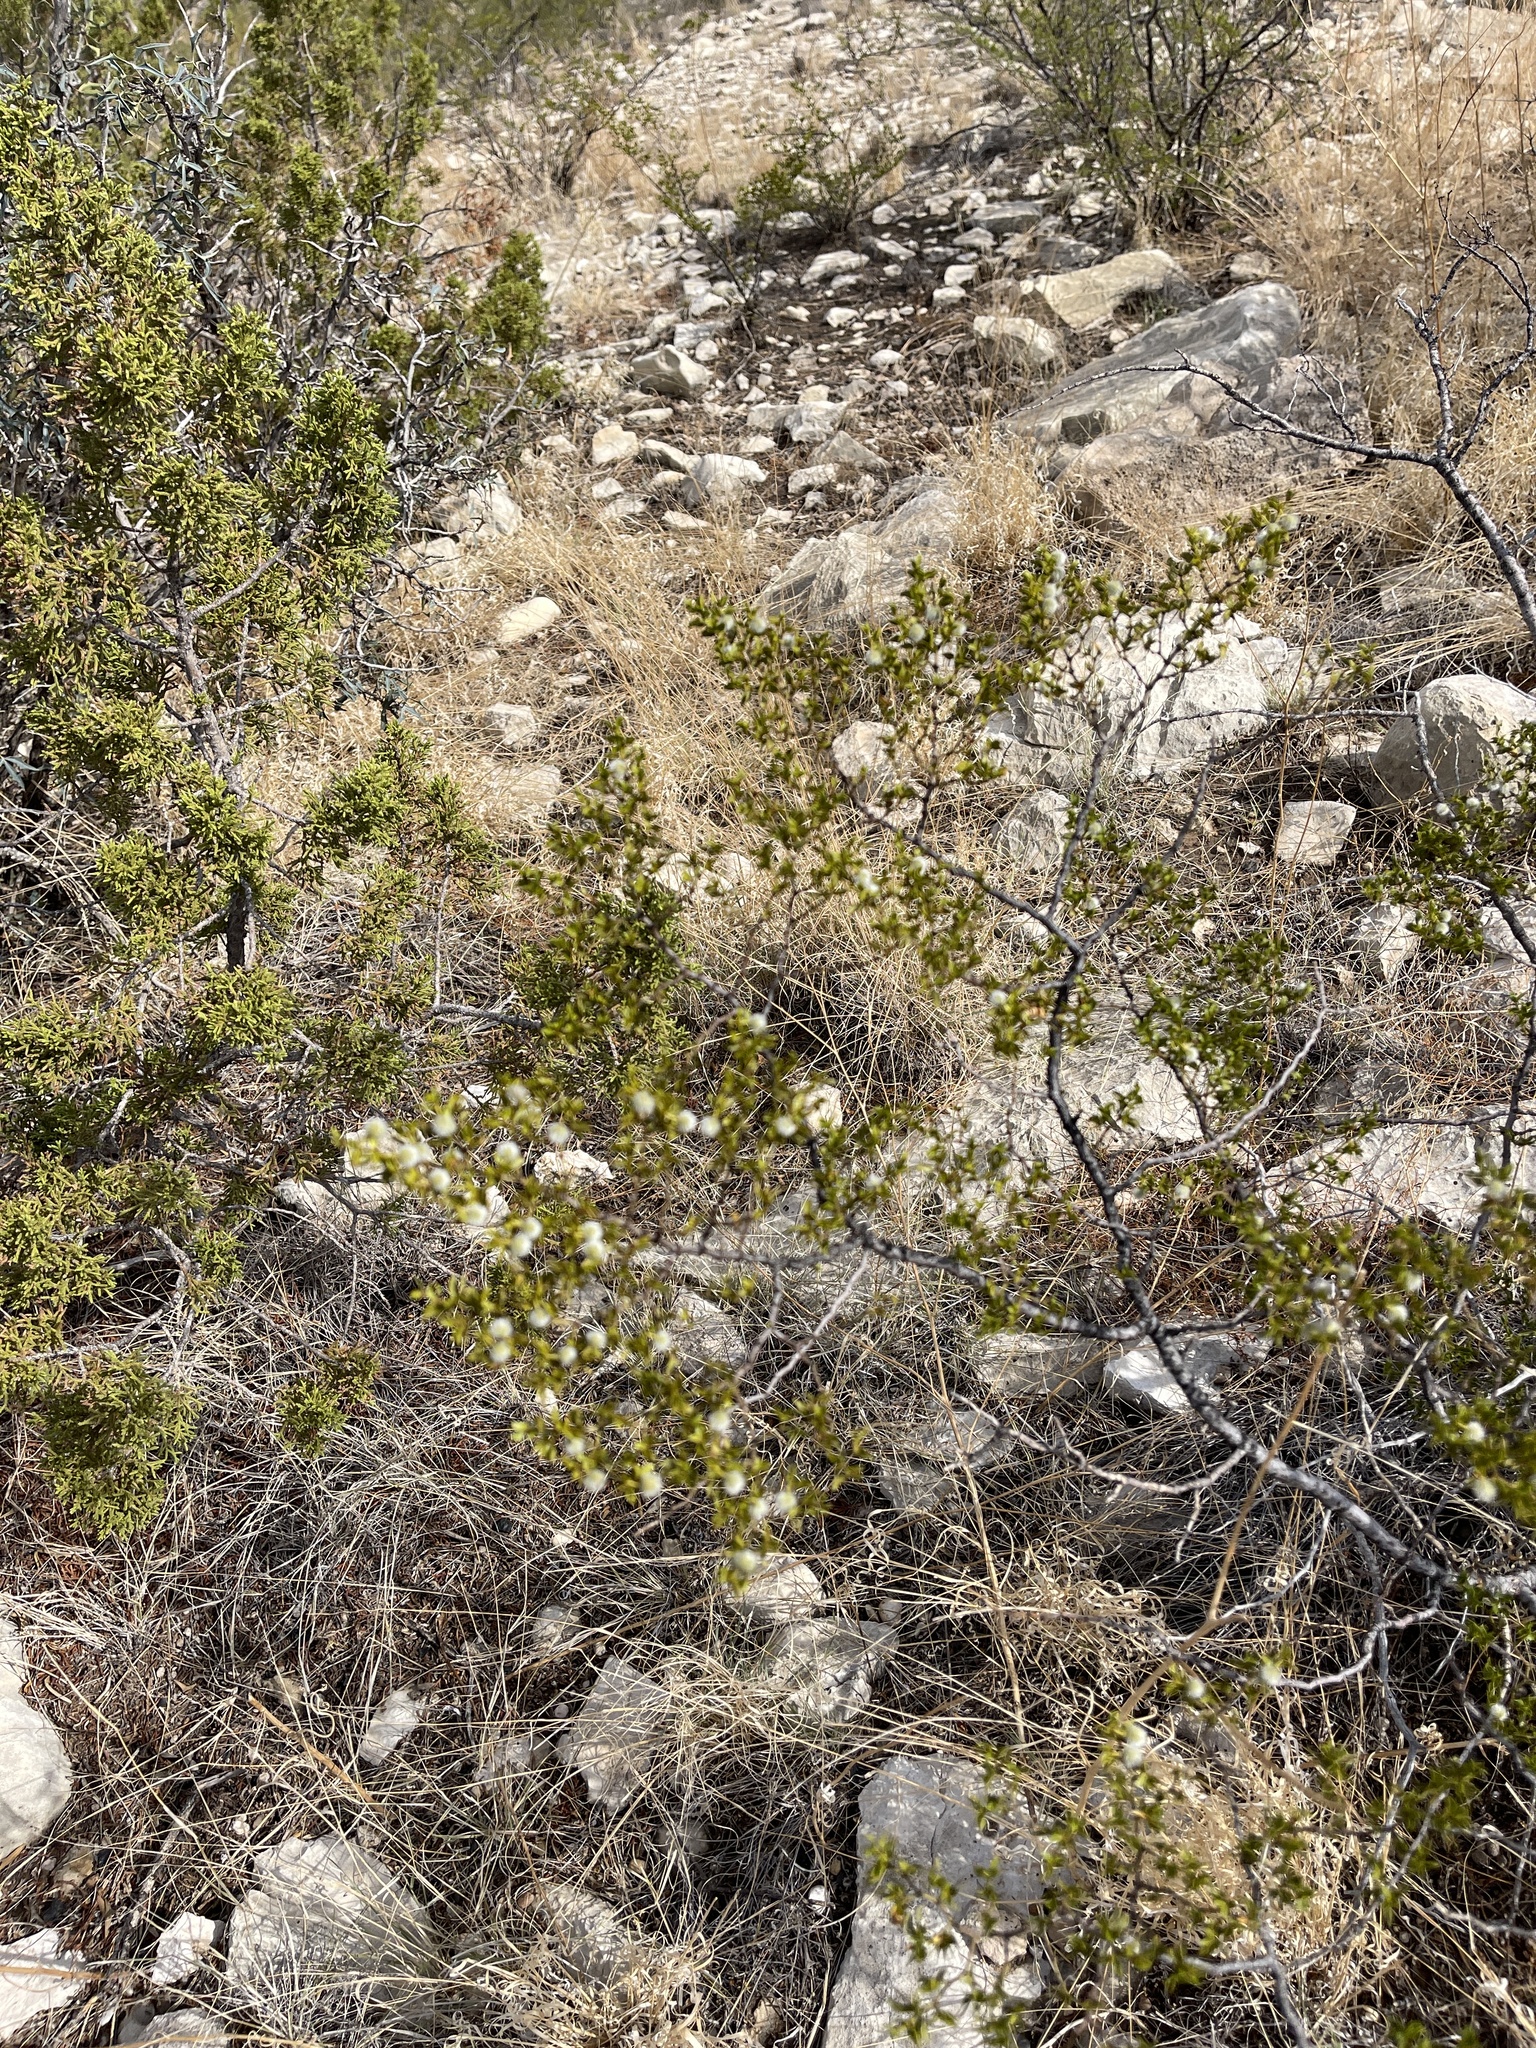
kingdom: Plantae
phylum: Tracheophyta
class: Magnoliopsida
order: Zygophyllales
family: Zygophyllaceae
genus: Larrea
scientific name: Larrea tridentata
